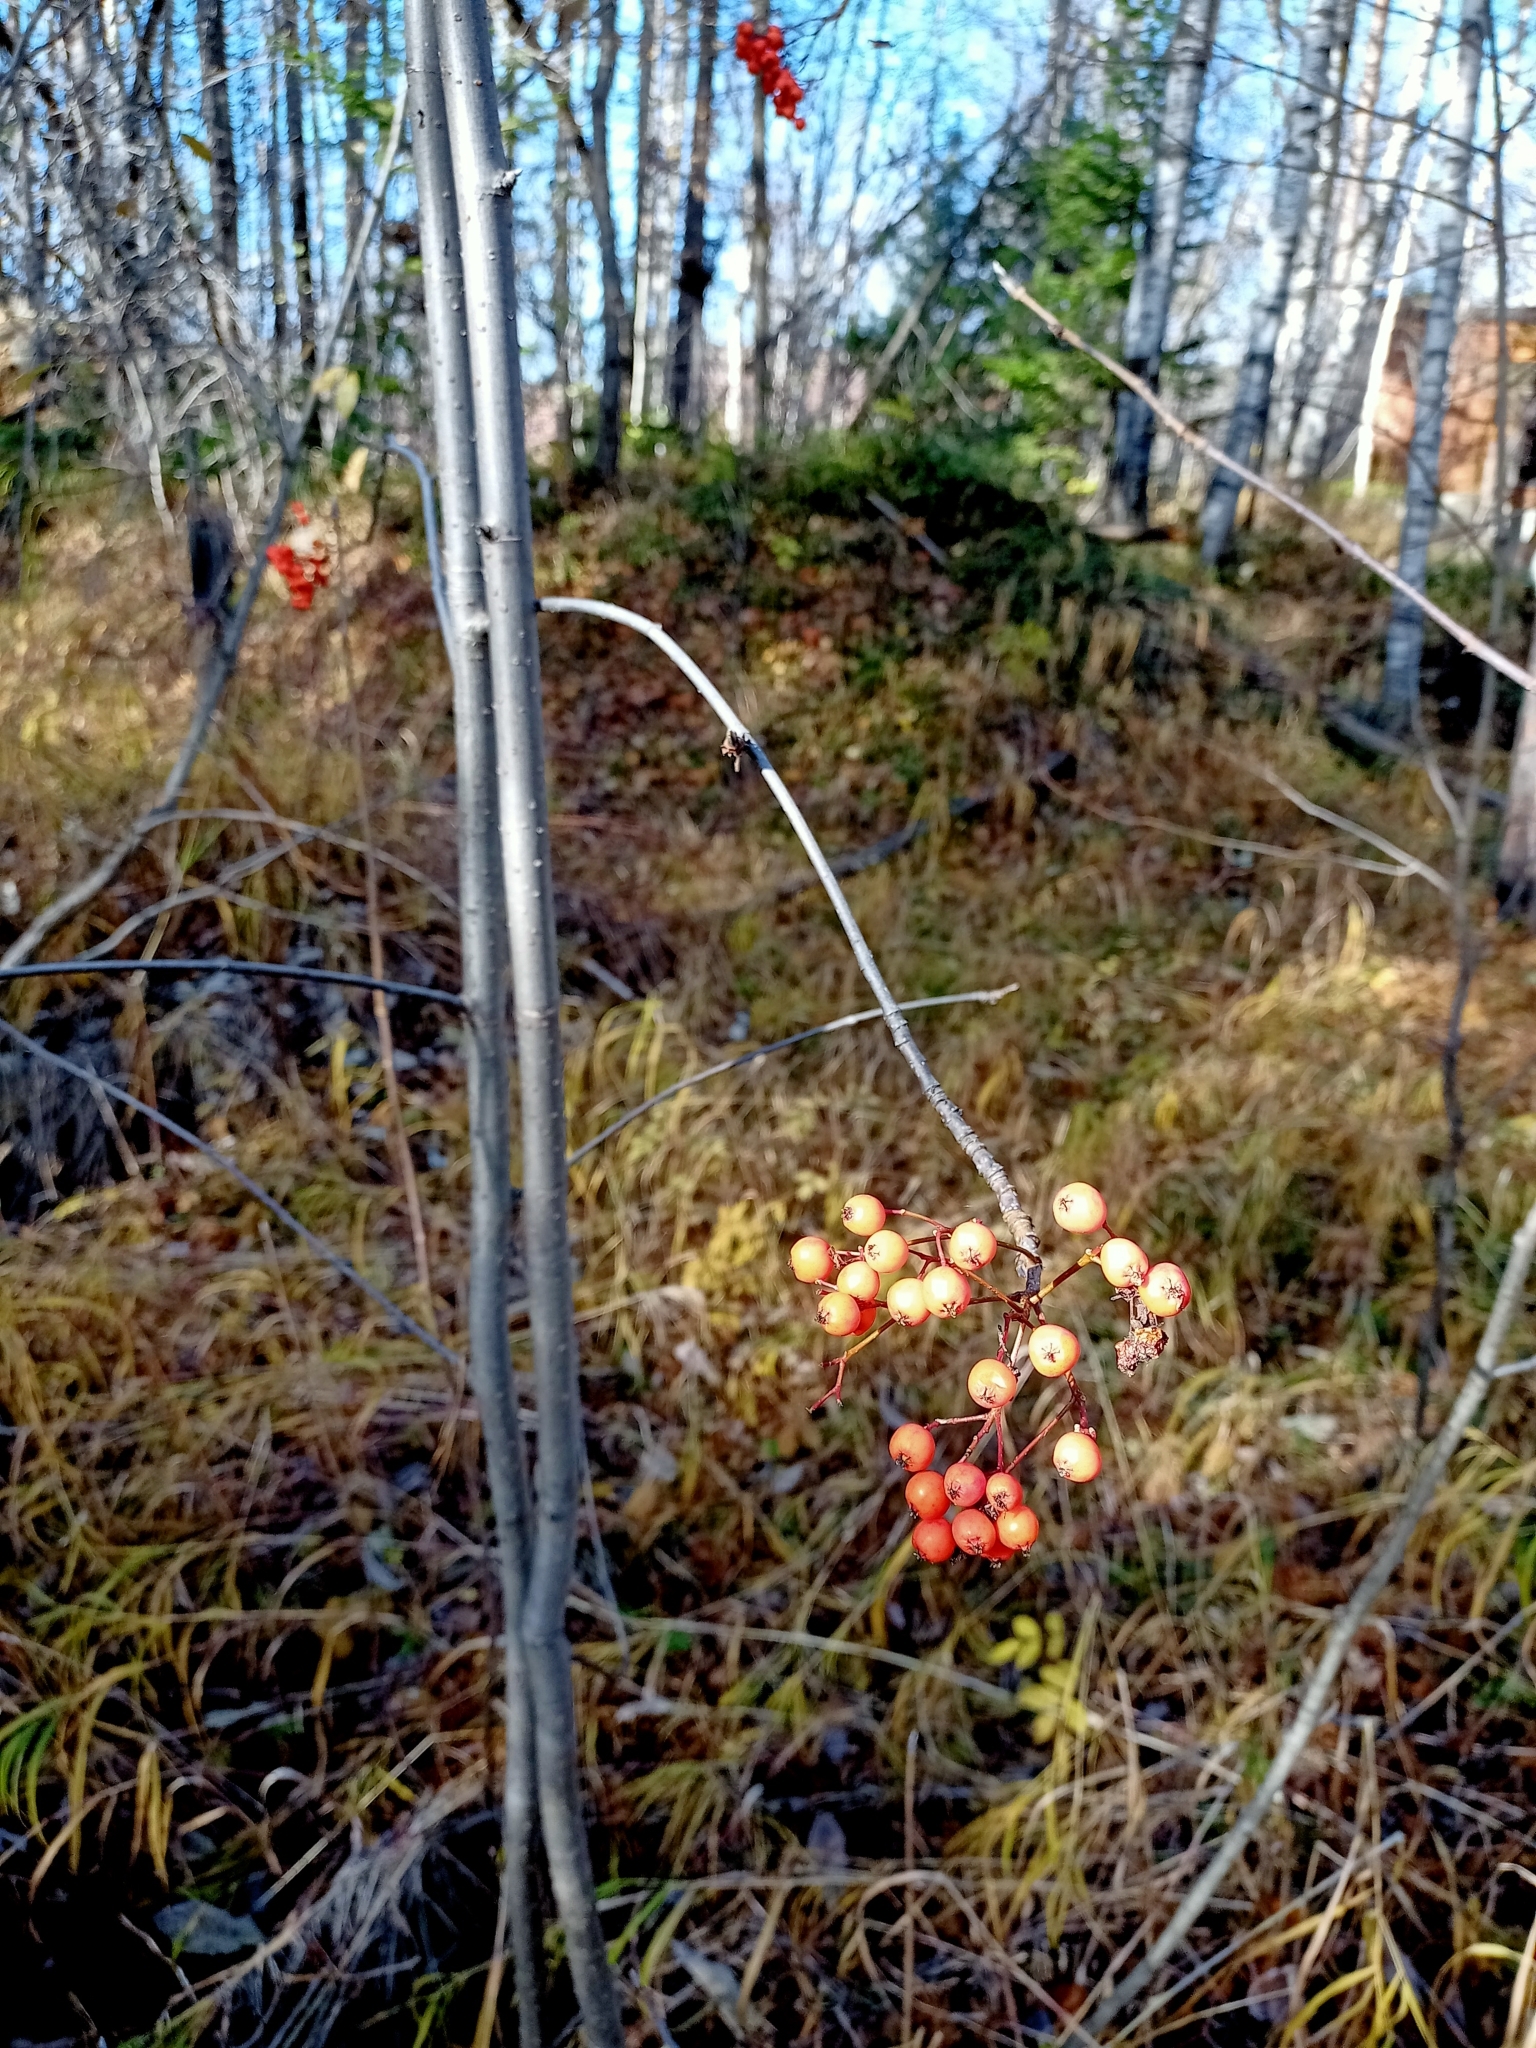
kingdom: Plantae
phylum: Tracheophyta
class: Magnoliopsida
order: Rosales
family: Rosaceae
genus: Sorbus
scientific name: Sorbus aucuparia
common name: Rowan
